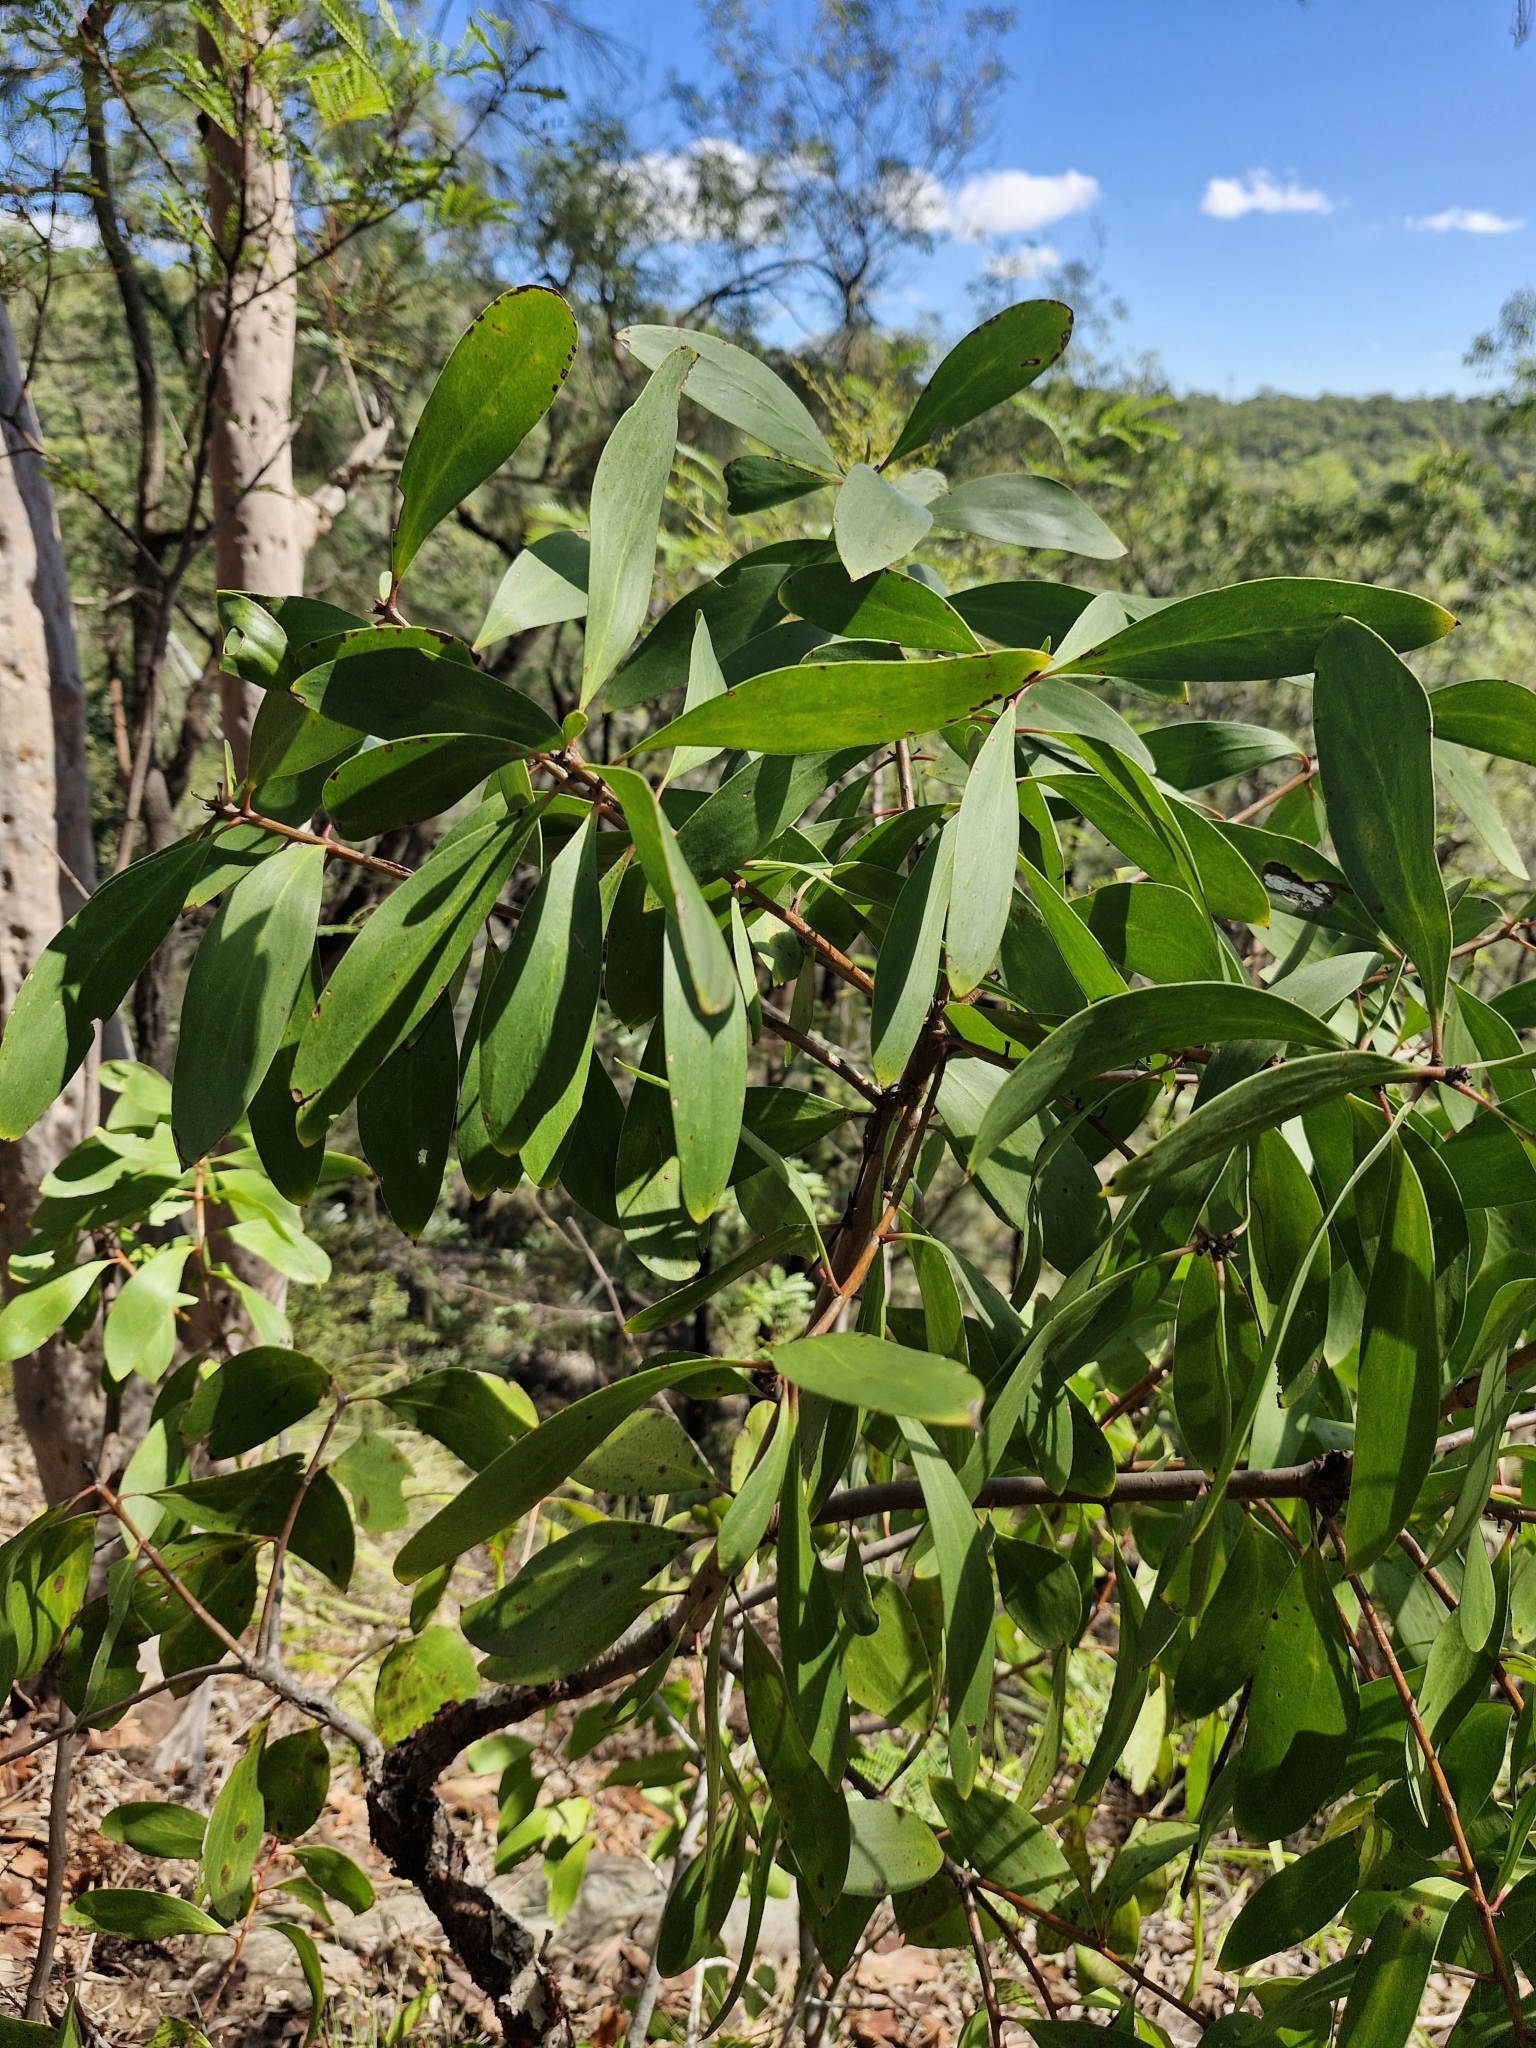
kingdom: Plantae
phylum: Tracheophyta
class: Magnoliopsida
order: Proteales
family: Proteaceae
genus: Persoonia
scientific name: Persoonia levis
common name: Smooth geebung
